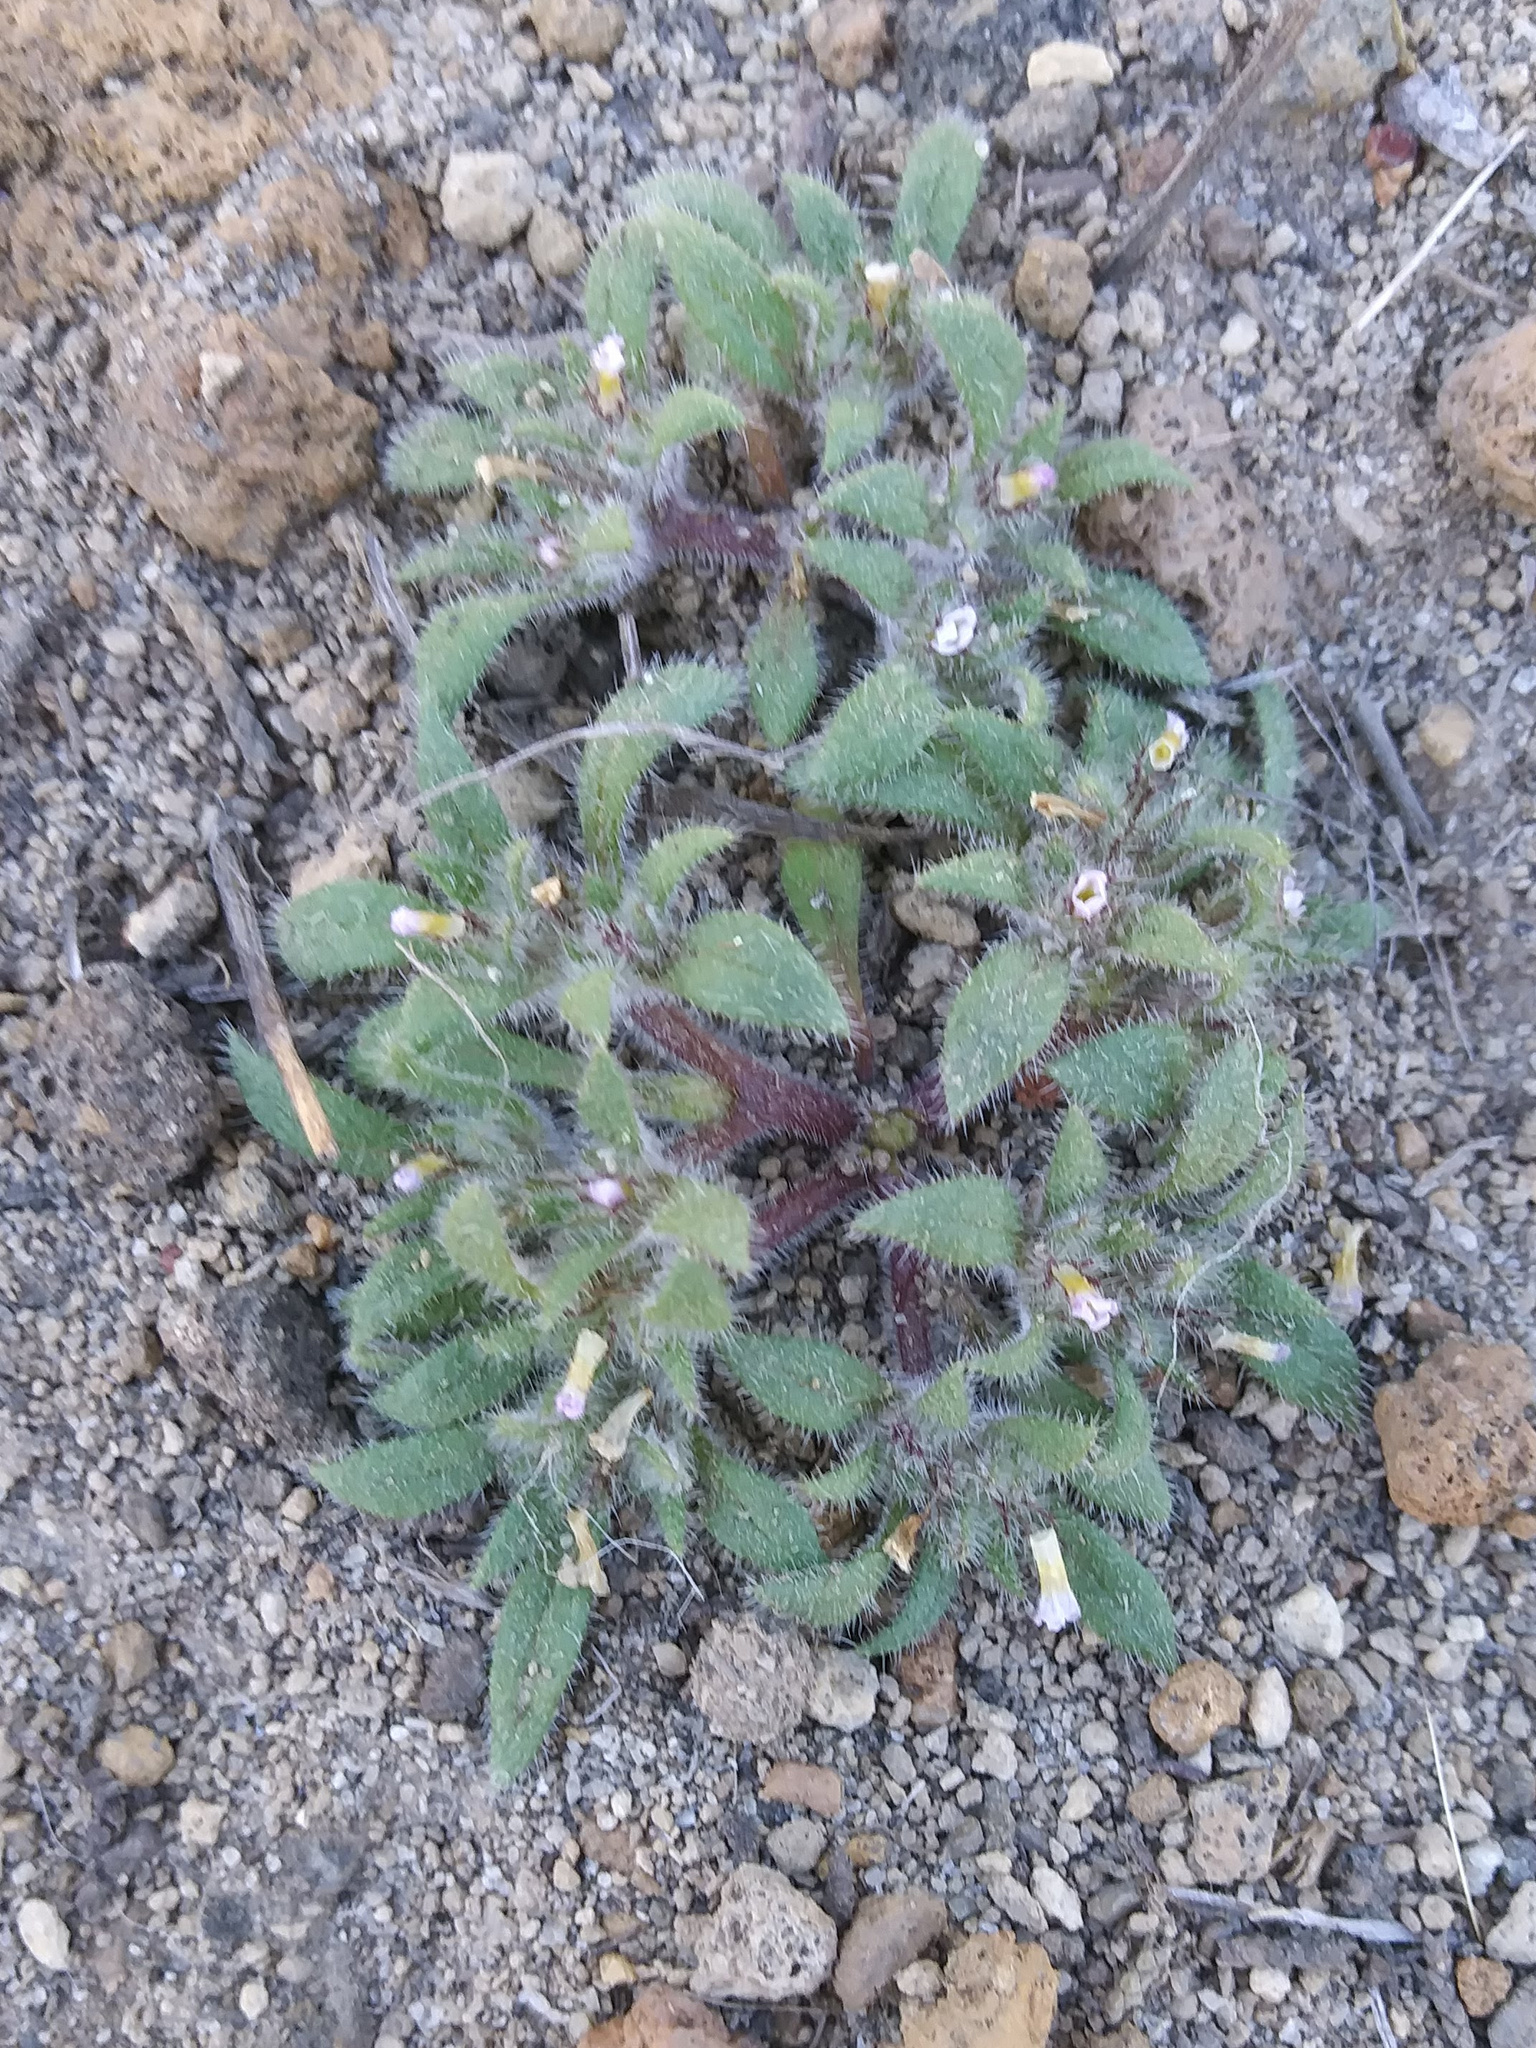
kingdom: Plantae
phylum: Tracheophyta
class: Magnoliopsida
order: Boraginales
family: Namaceae
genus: Nama
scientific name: Nama densa
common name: Leafy nama
